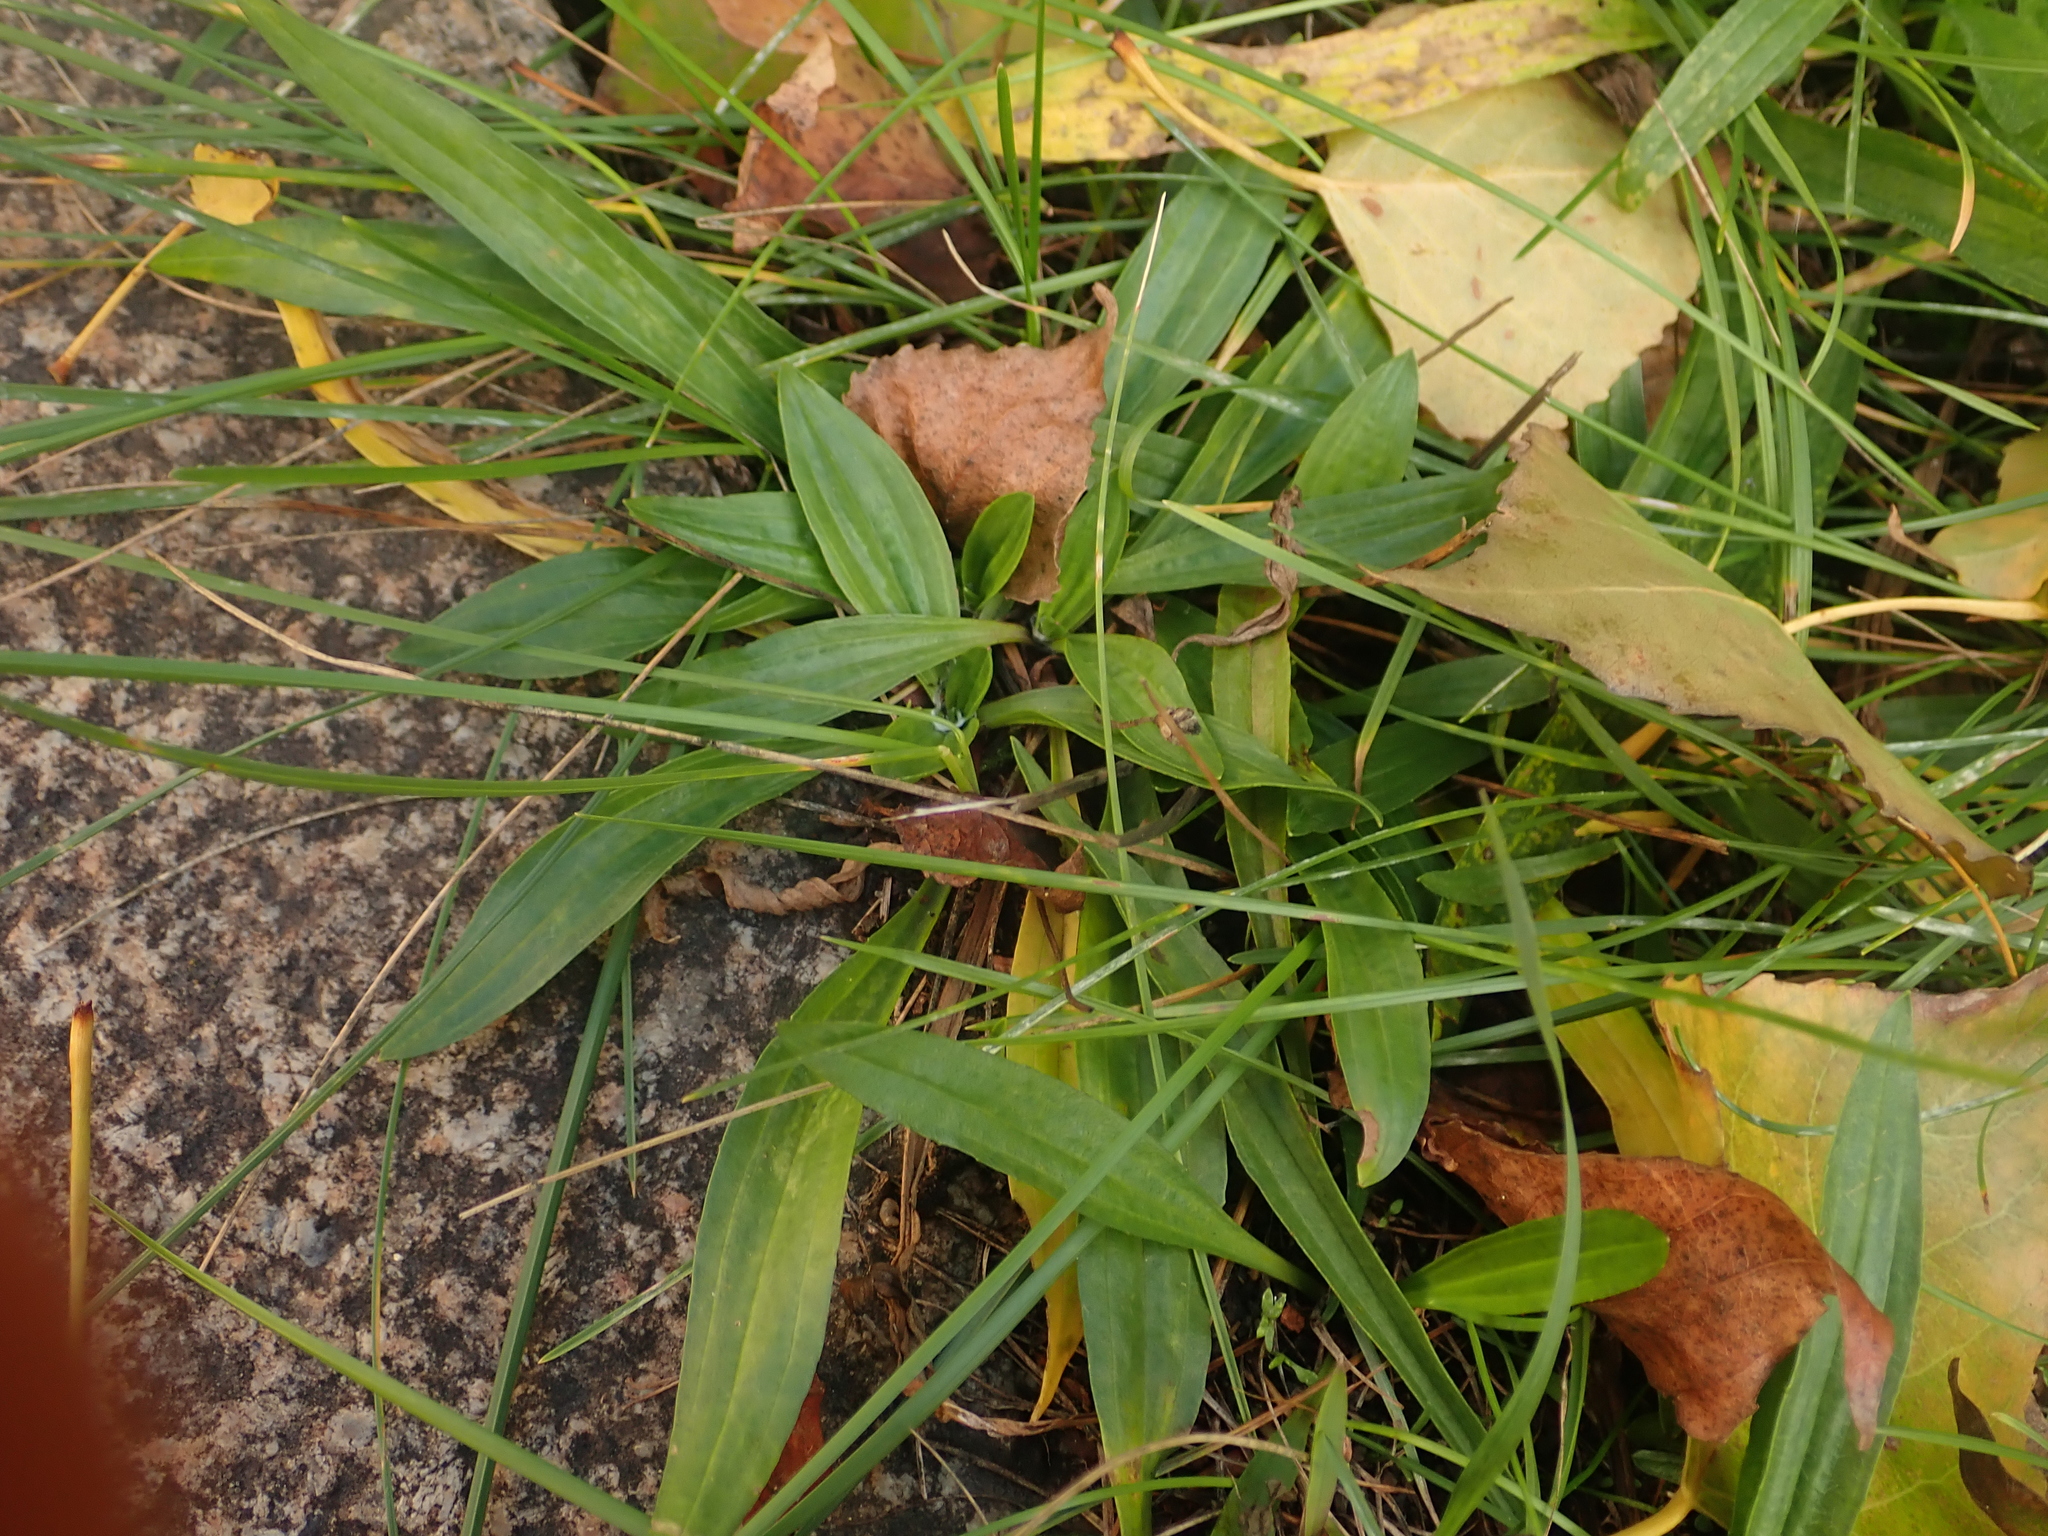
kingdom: Plantae
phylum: Tracheophyta
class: Magnoliopsida
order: Lamiales
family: Plantaginaceae
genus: Plantago
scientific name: Plantago lanceolata
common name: Ribwort plantain
